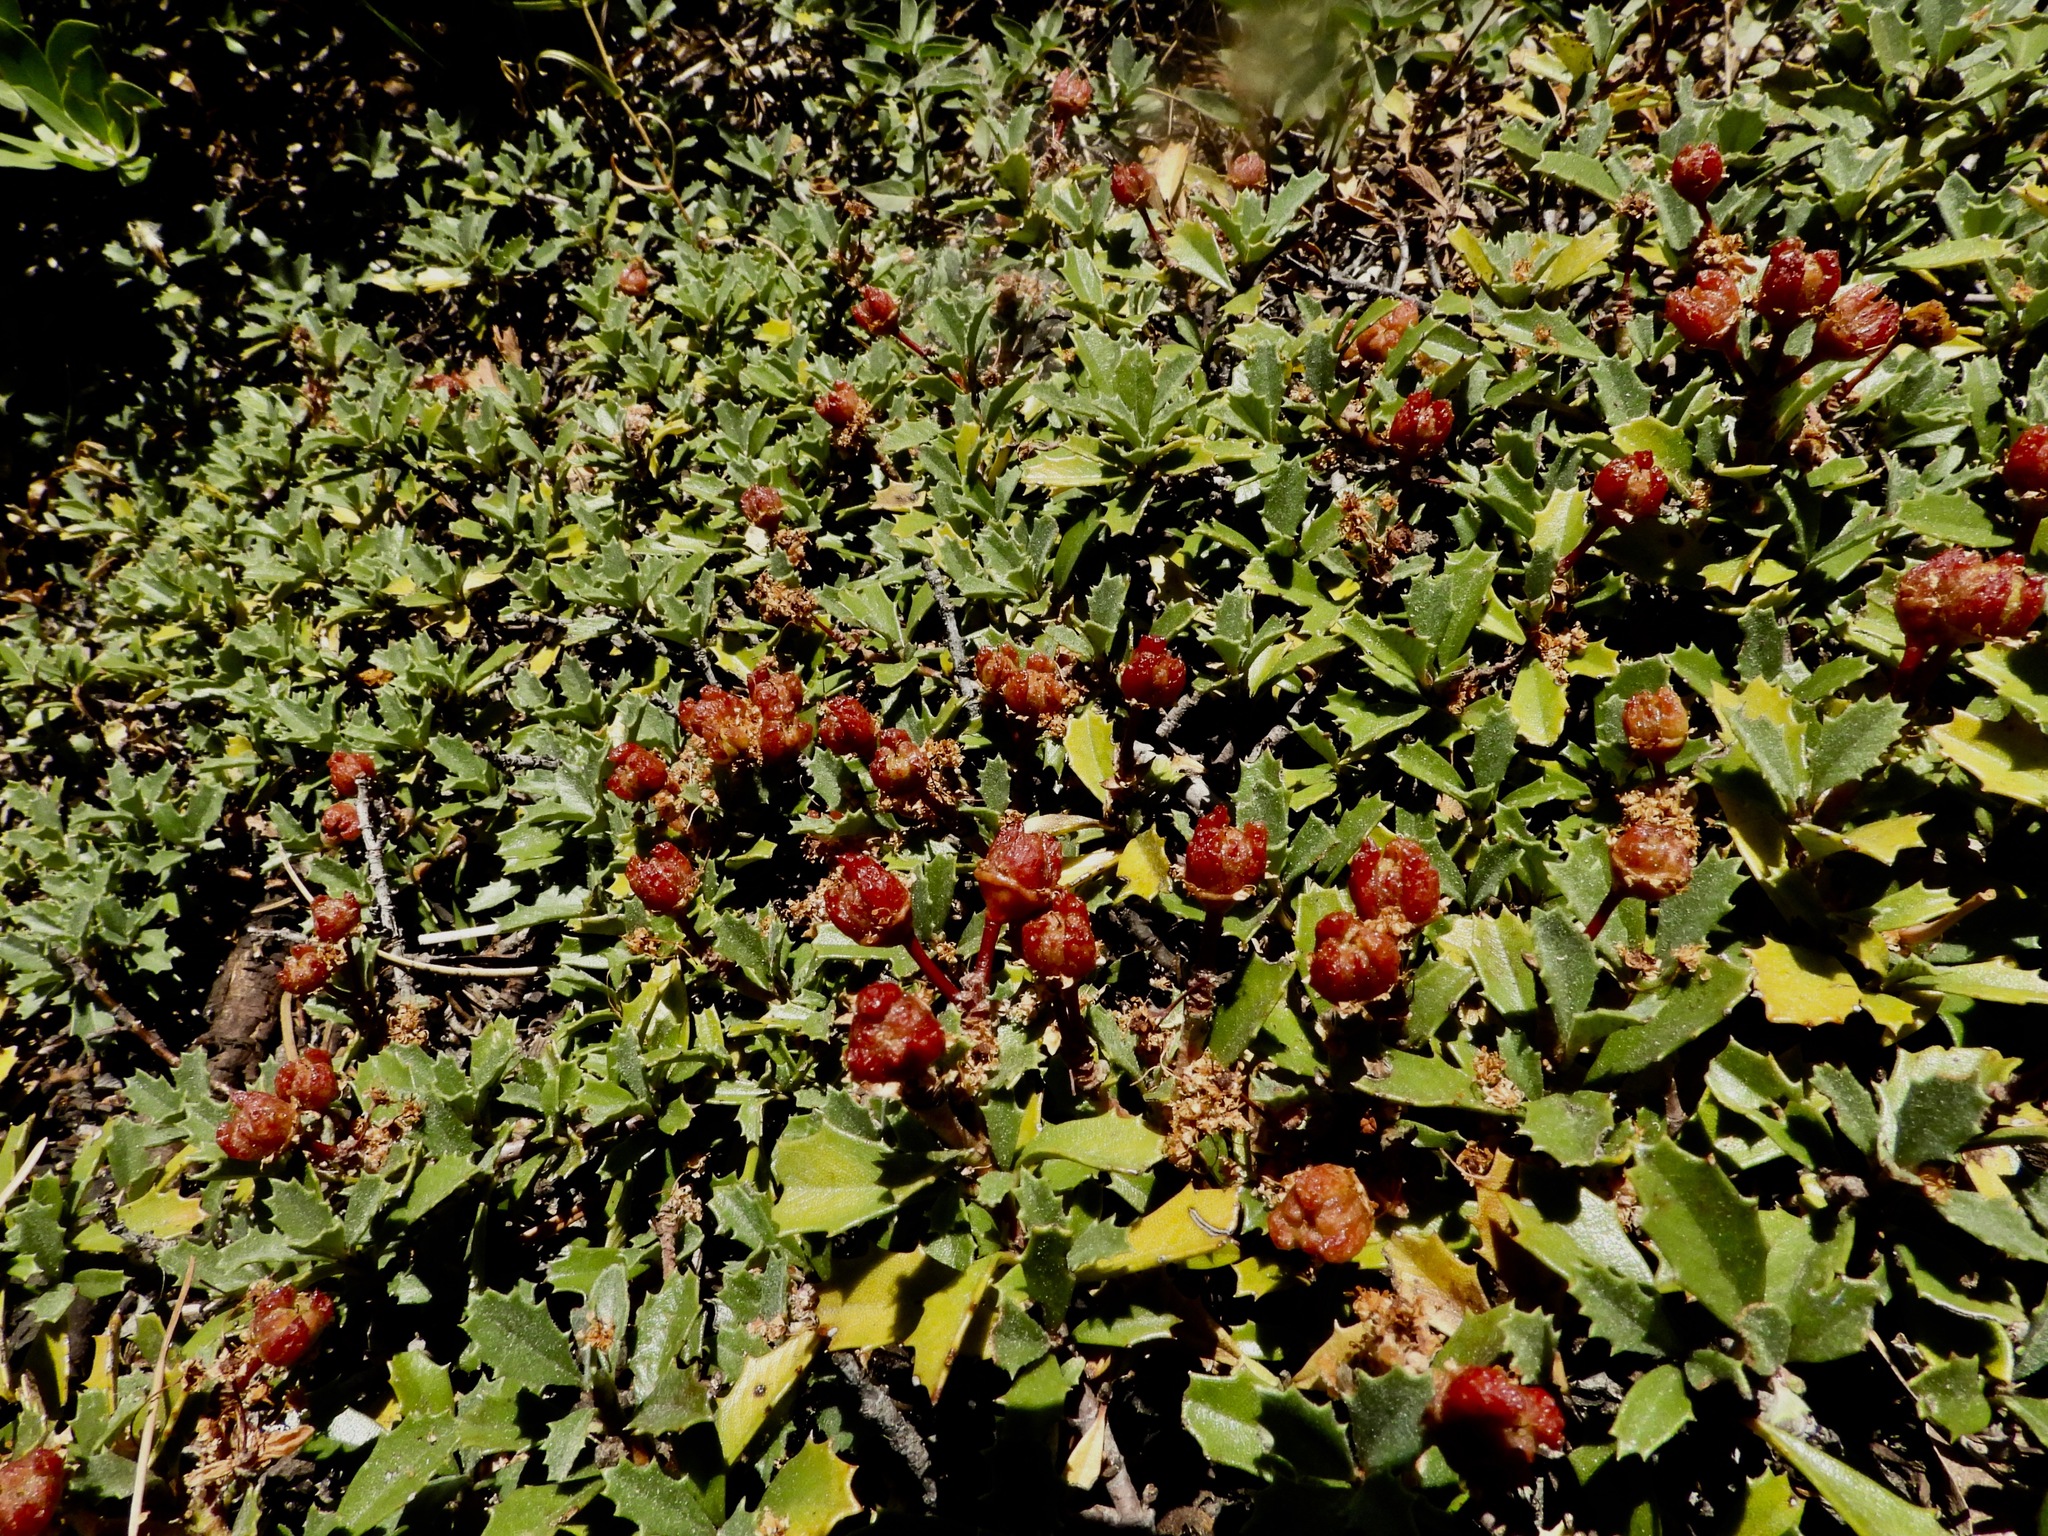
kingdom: Plantae
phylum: Tracheophyta
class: Magnoliopsida
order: Rosales
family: Rhamnaceae
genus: Ceanothus
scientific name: Ceanothus prostratus
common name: Mahala-mat
